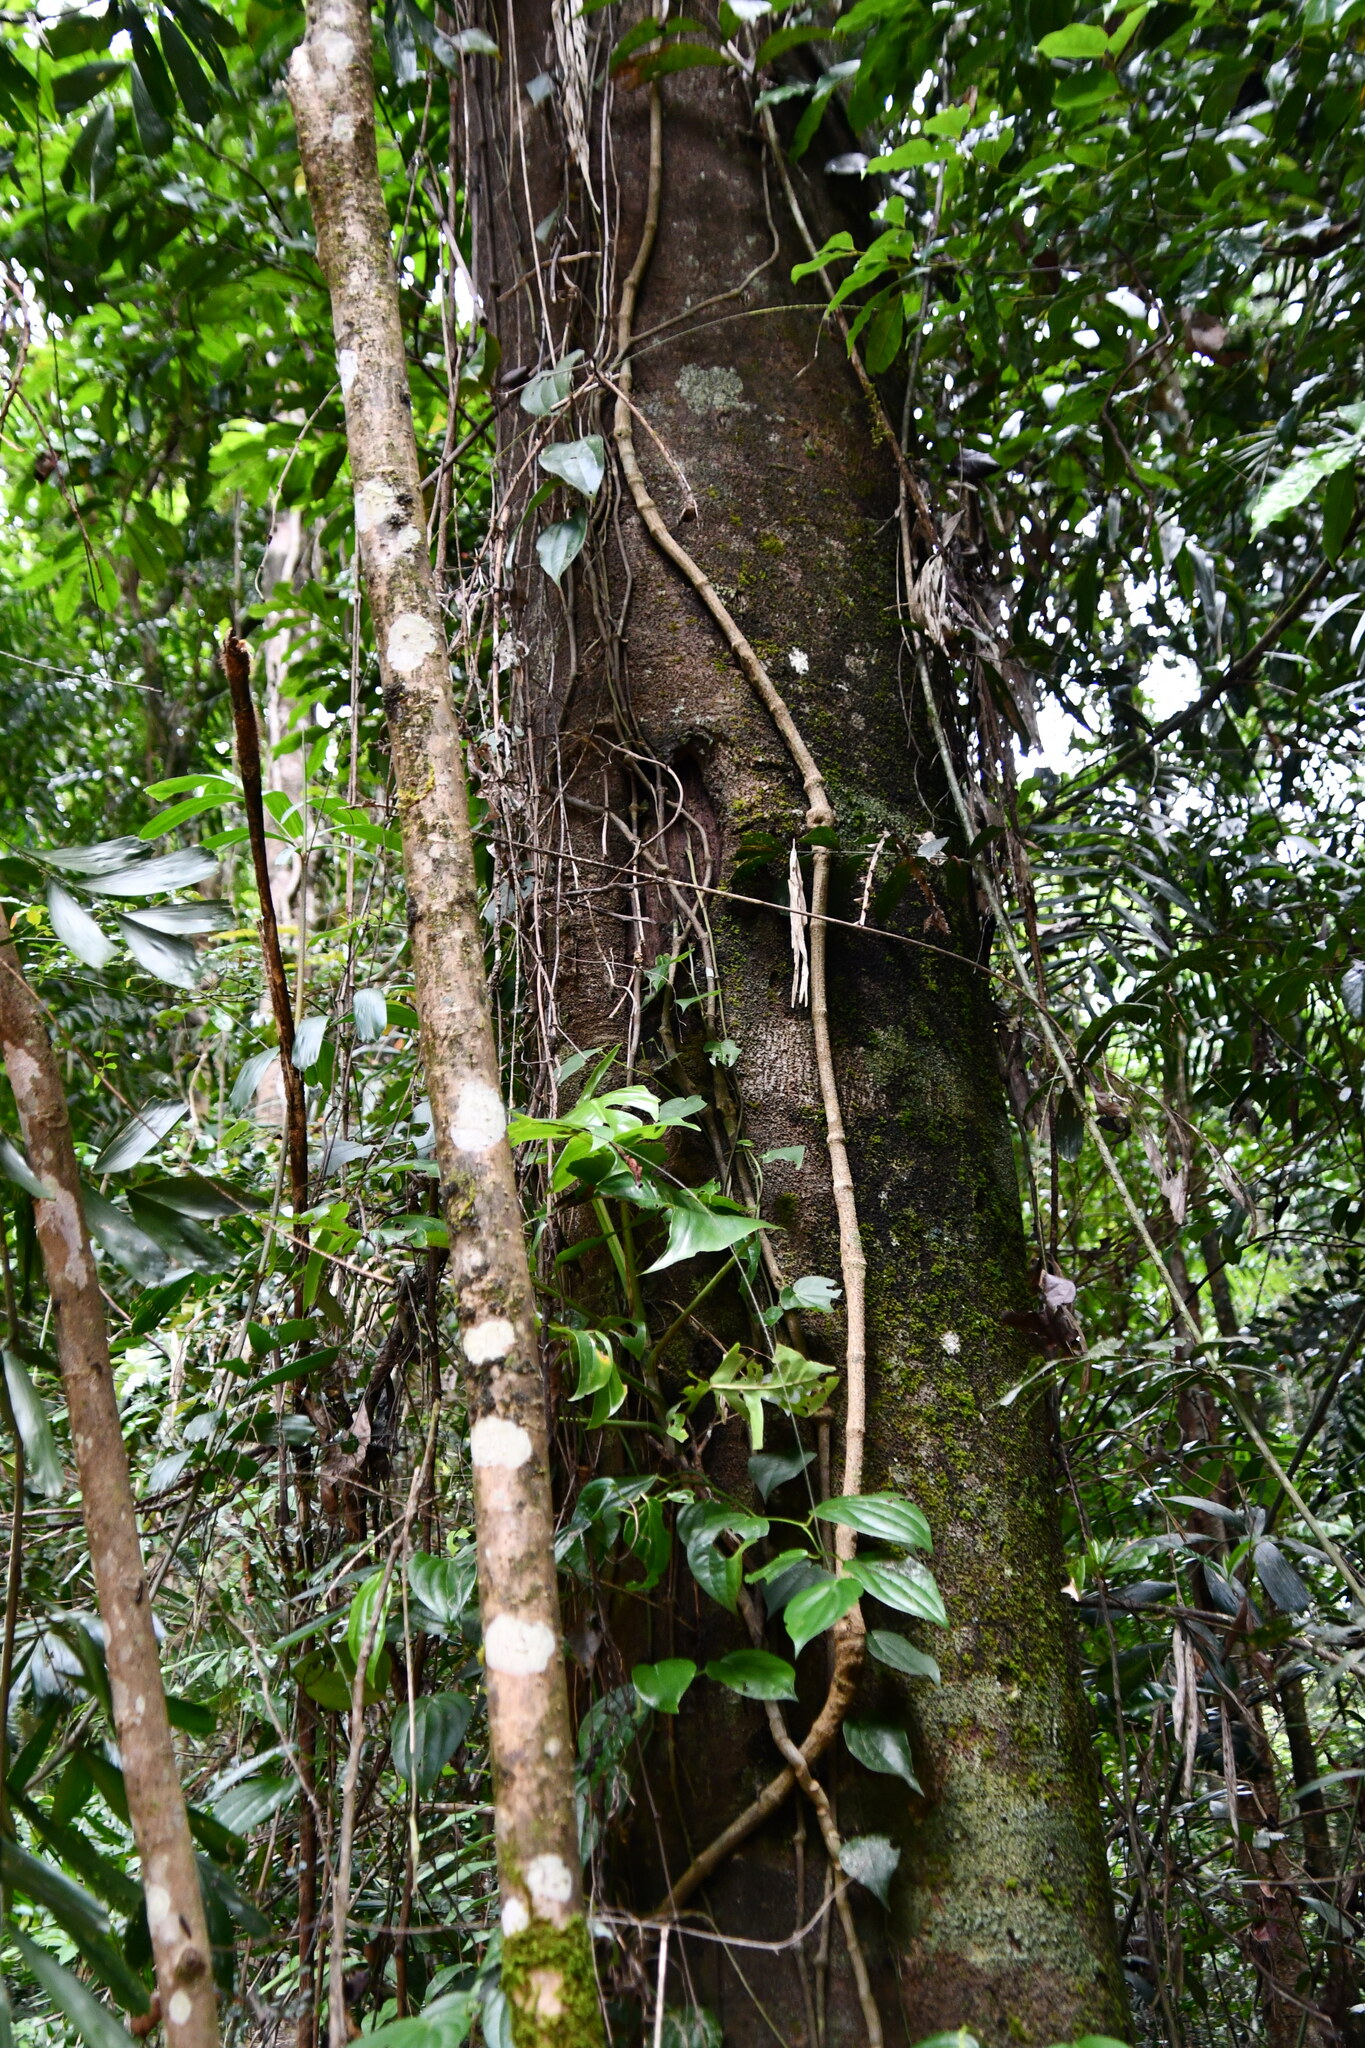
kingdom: Plantae
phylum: Tracheophyta
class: Magnoliopsida
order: Proteales
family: Proteaceae
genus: Carnarvonia
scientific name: Carnarvonia araliifolia
